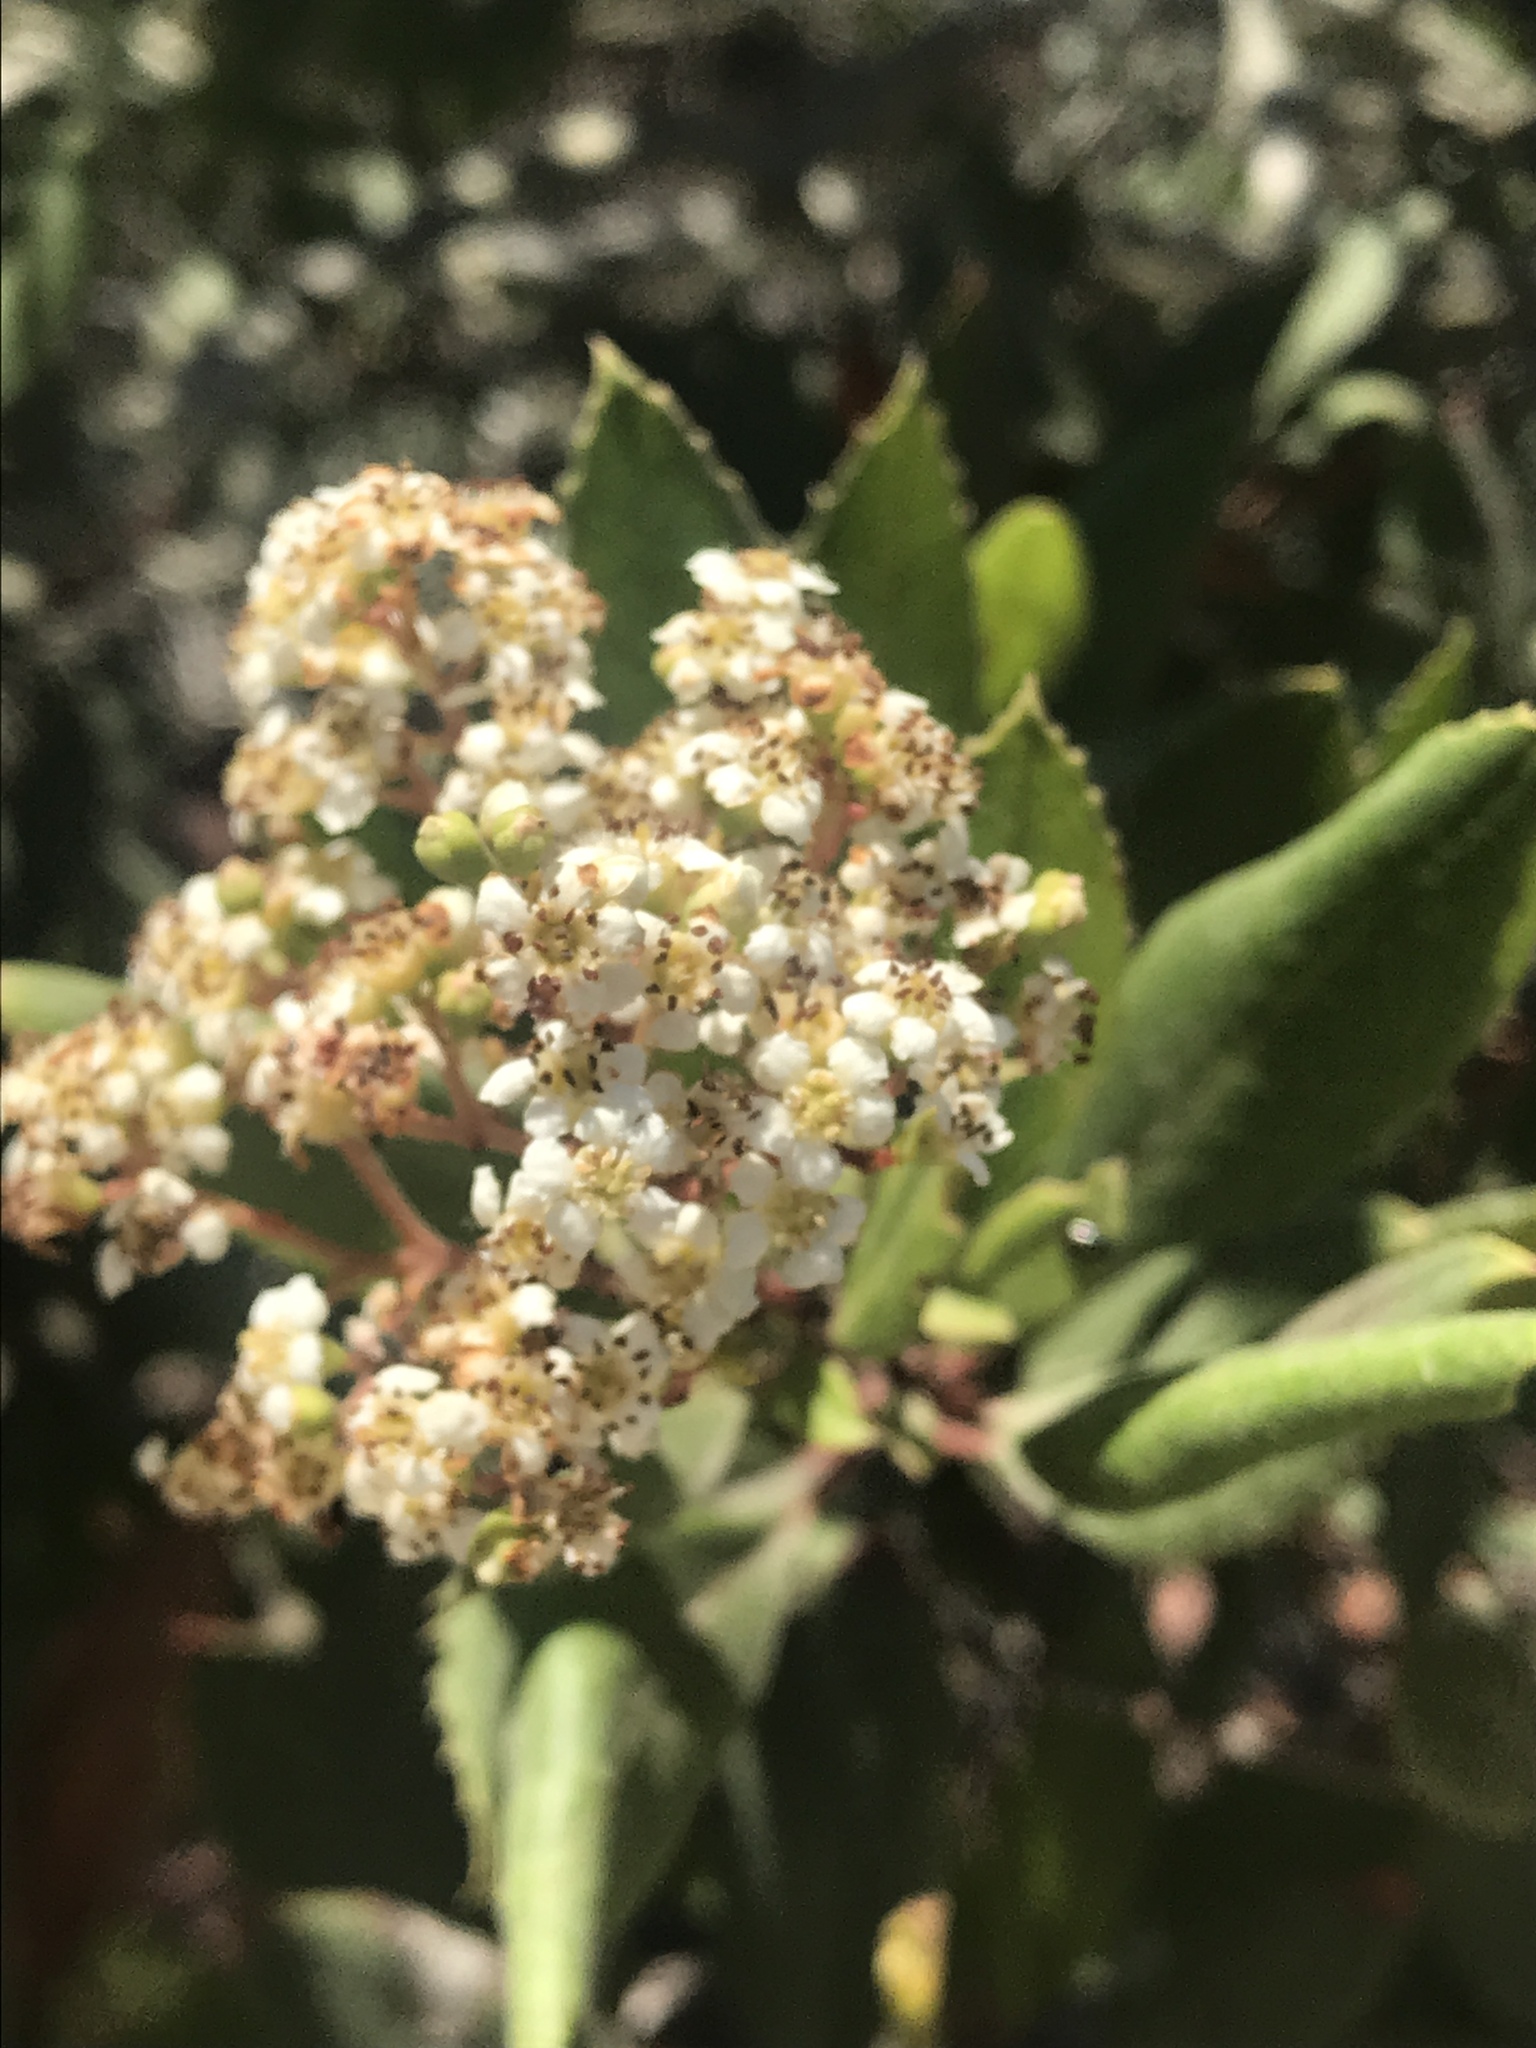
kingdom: Plantae
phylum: Tracheophyta
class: Magnoliopsida
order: Rosales
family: Rosaceae
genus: Heteromeles
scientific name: Heteromeles arbutifolia
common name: California-holly
